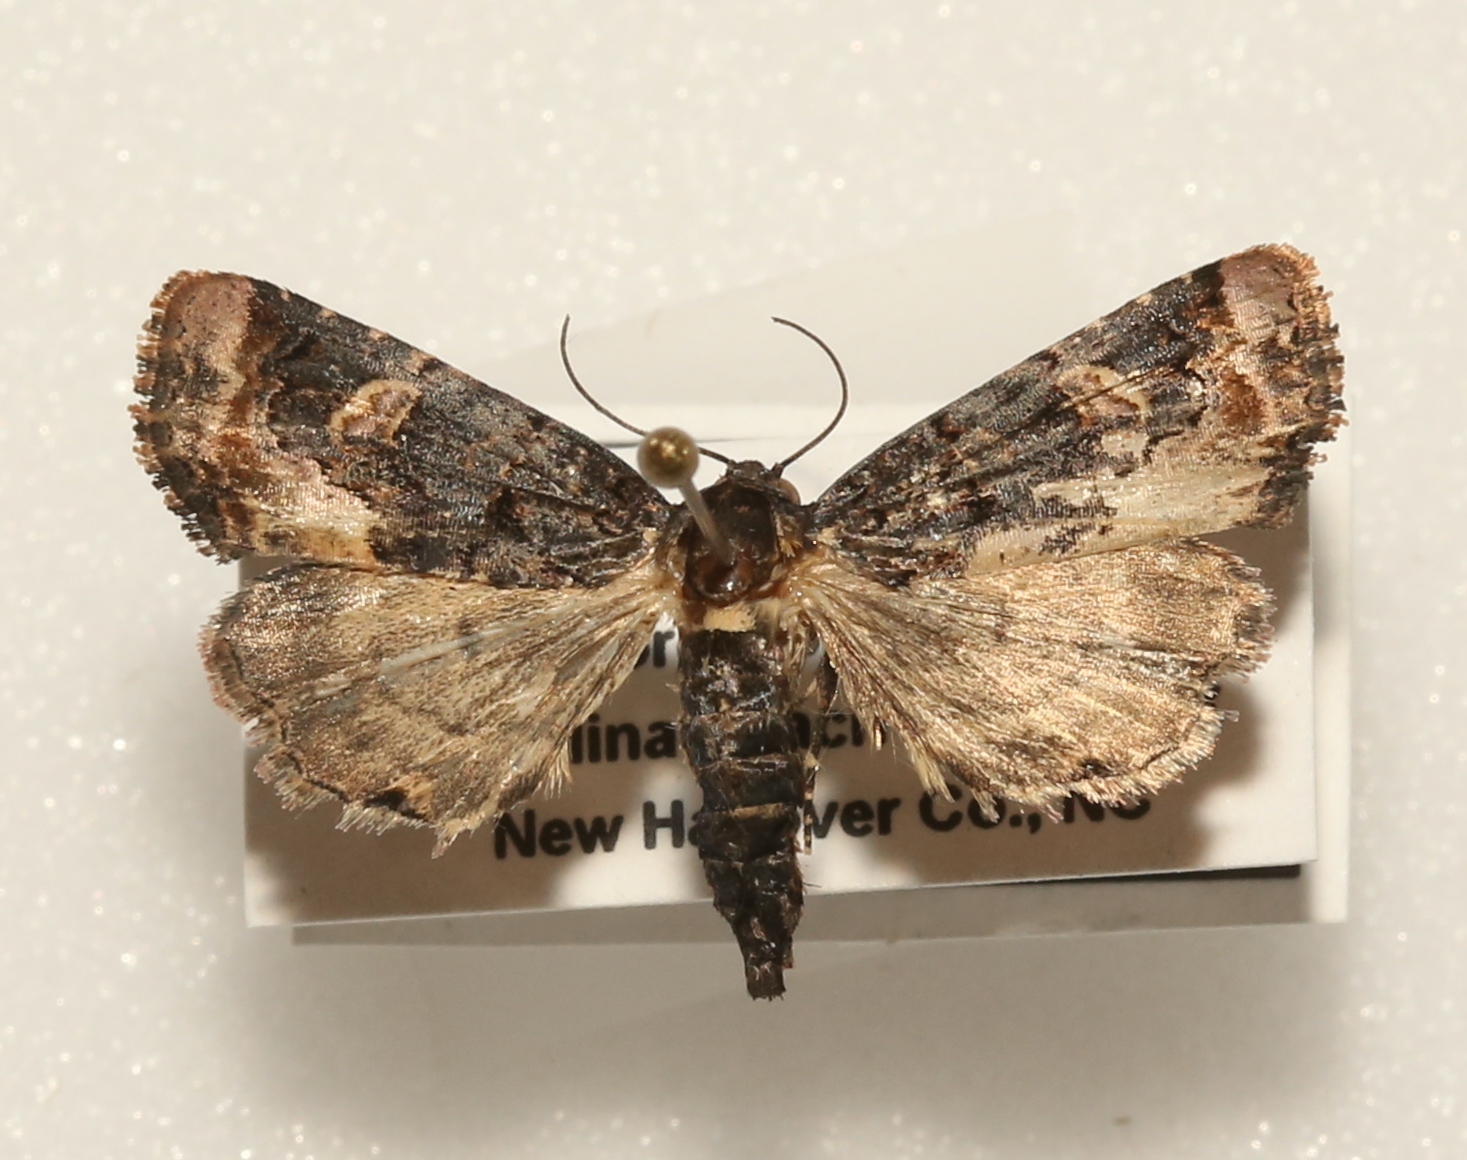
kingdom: Animalia
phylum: Arthropoda
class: Insecta
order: Lepidoptera
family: Noctuidae
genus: Homophoberia
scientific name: Homophoberia apicosa
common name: Black wedge-spot
